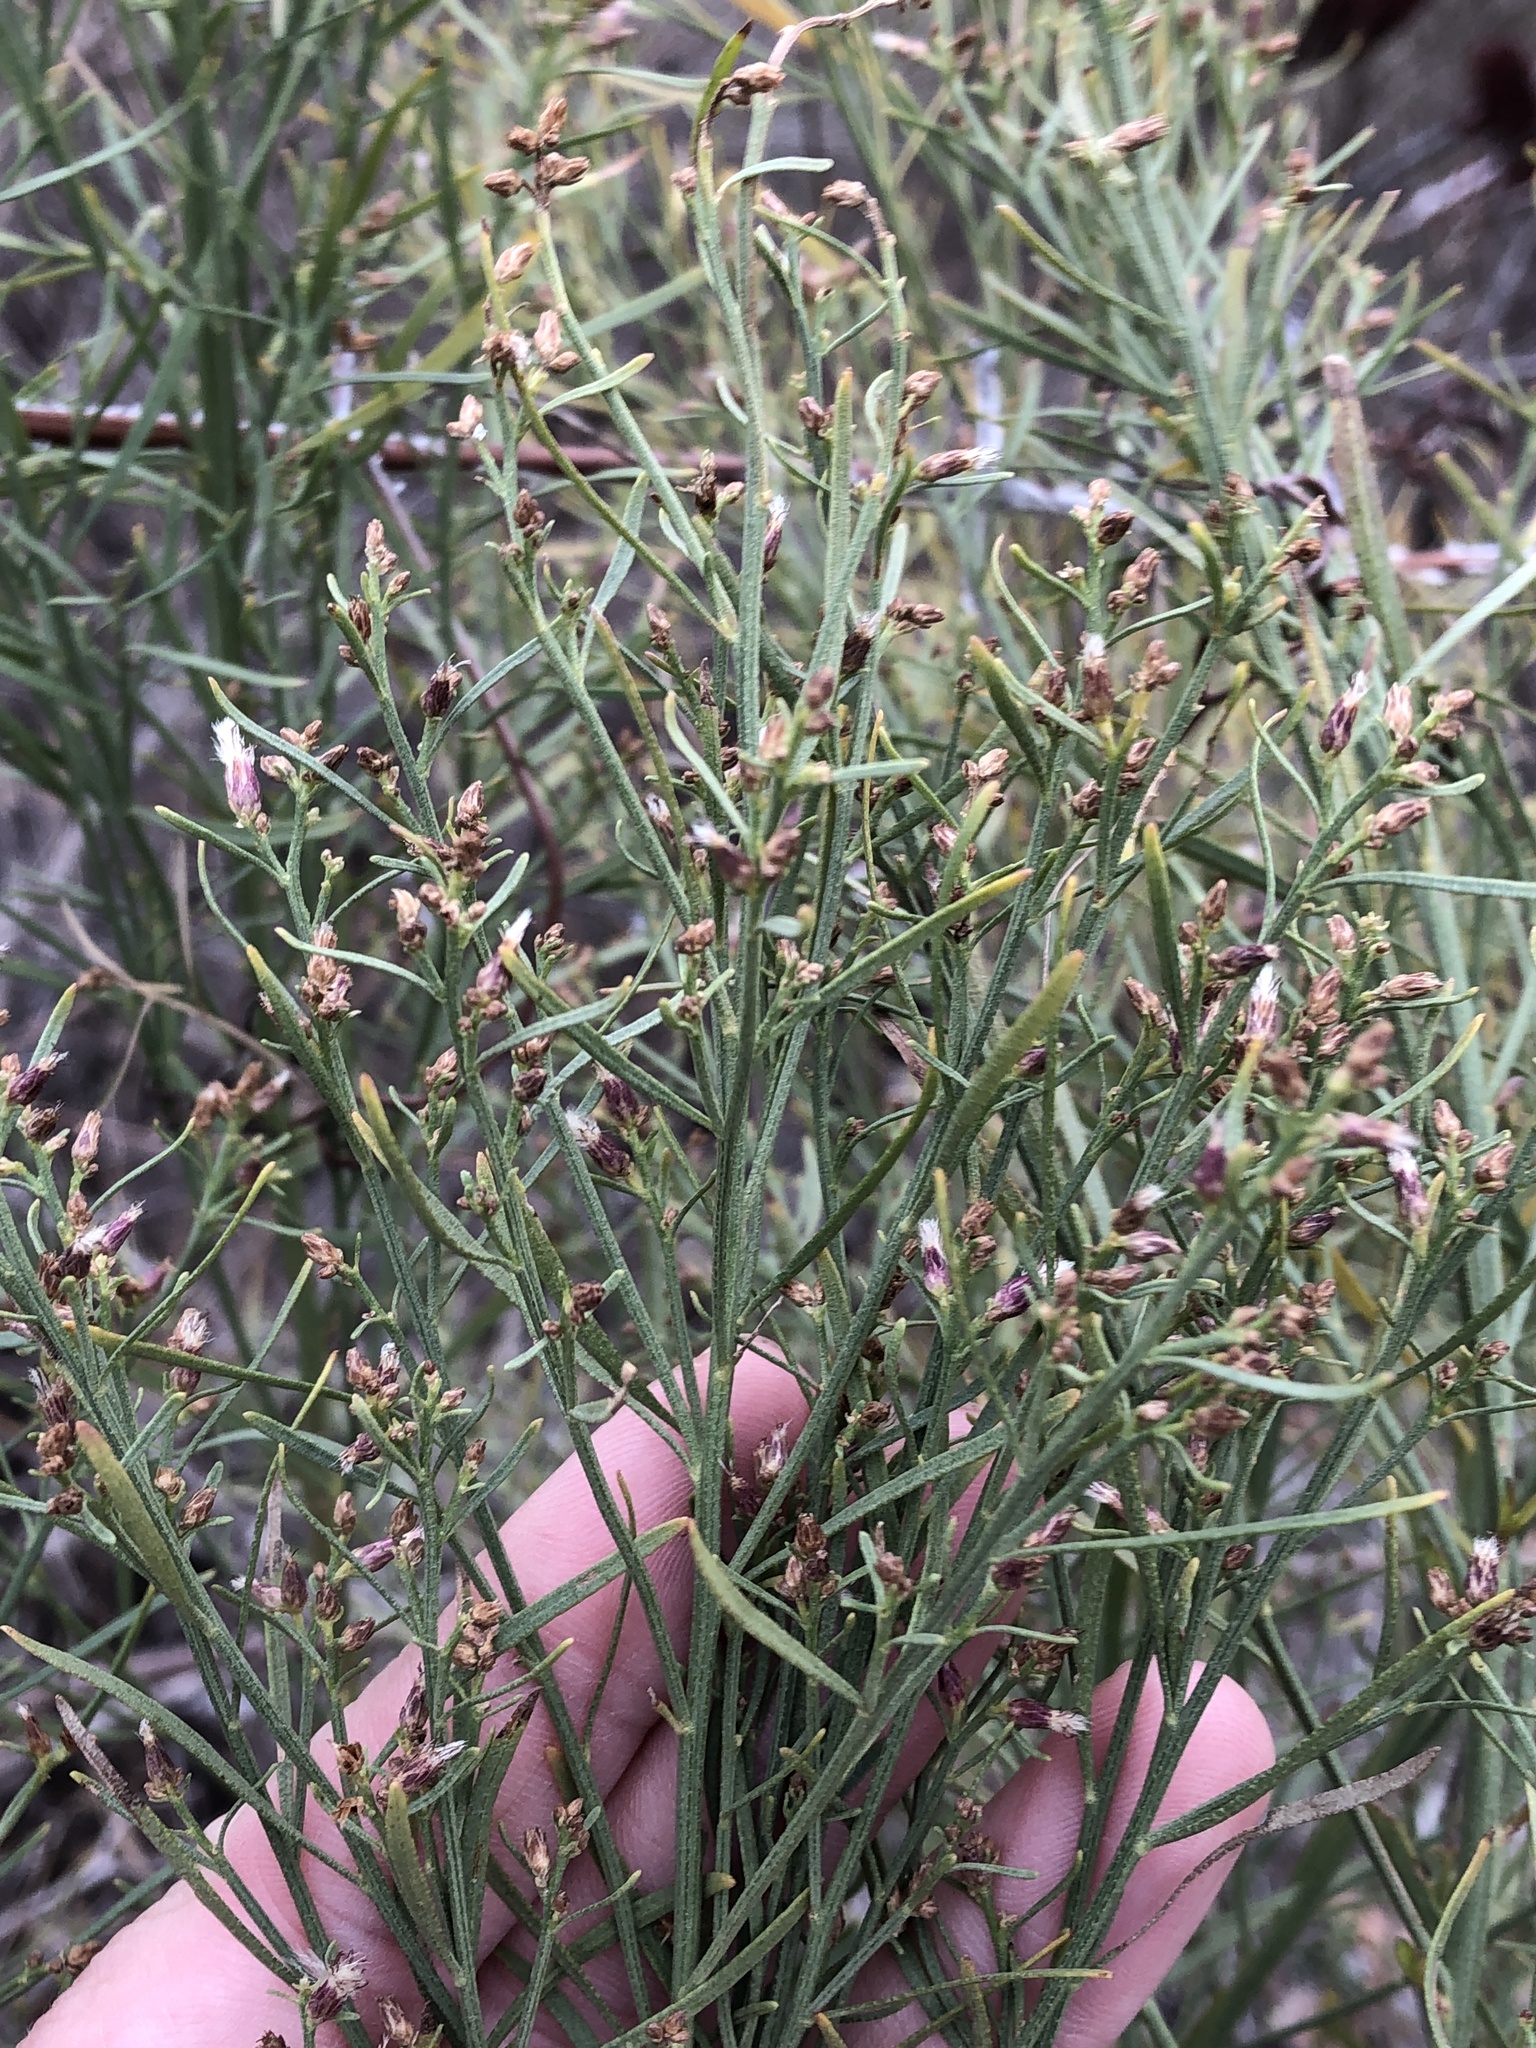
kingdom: Plantae
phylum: Tracheophyta
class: Magnoliopsida
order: Asterales
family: Asteraceae
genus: Baccharis
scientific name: Baccharis neglecta
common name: Roosevelt-weed
